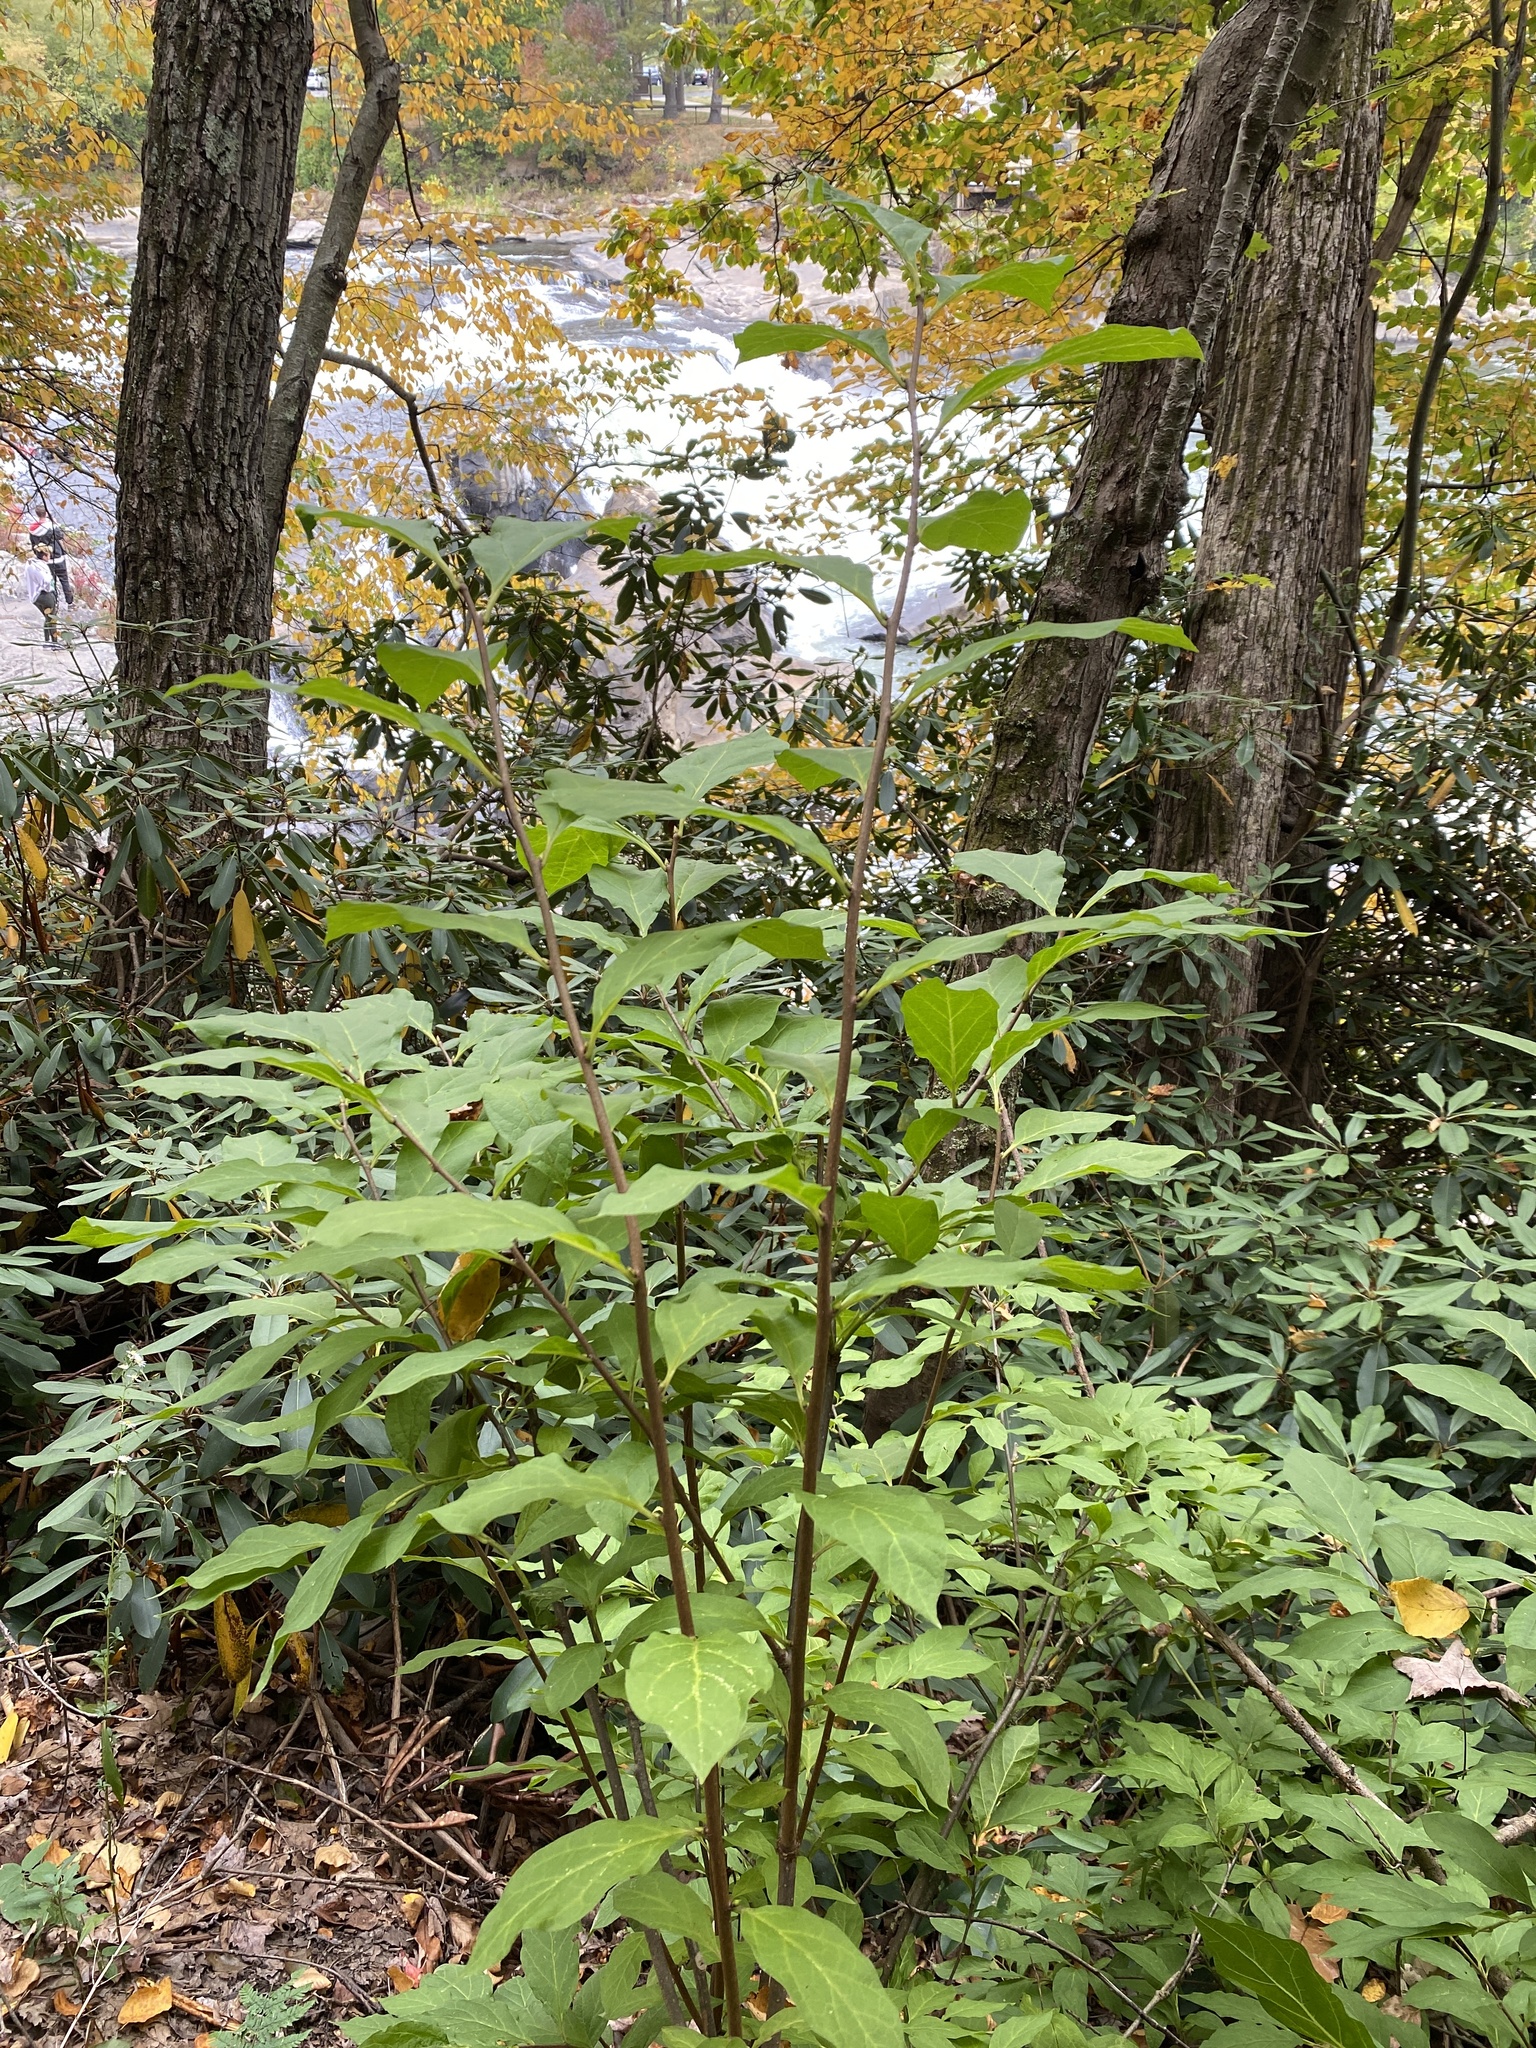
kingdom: Plantae
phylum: Tracheophyta
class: Magnoliopsida
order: Santalales
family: Cervantesiaceae
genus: Pyrularia
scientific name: Pyrularia pubera
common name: Oilnut
